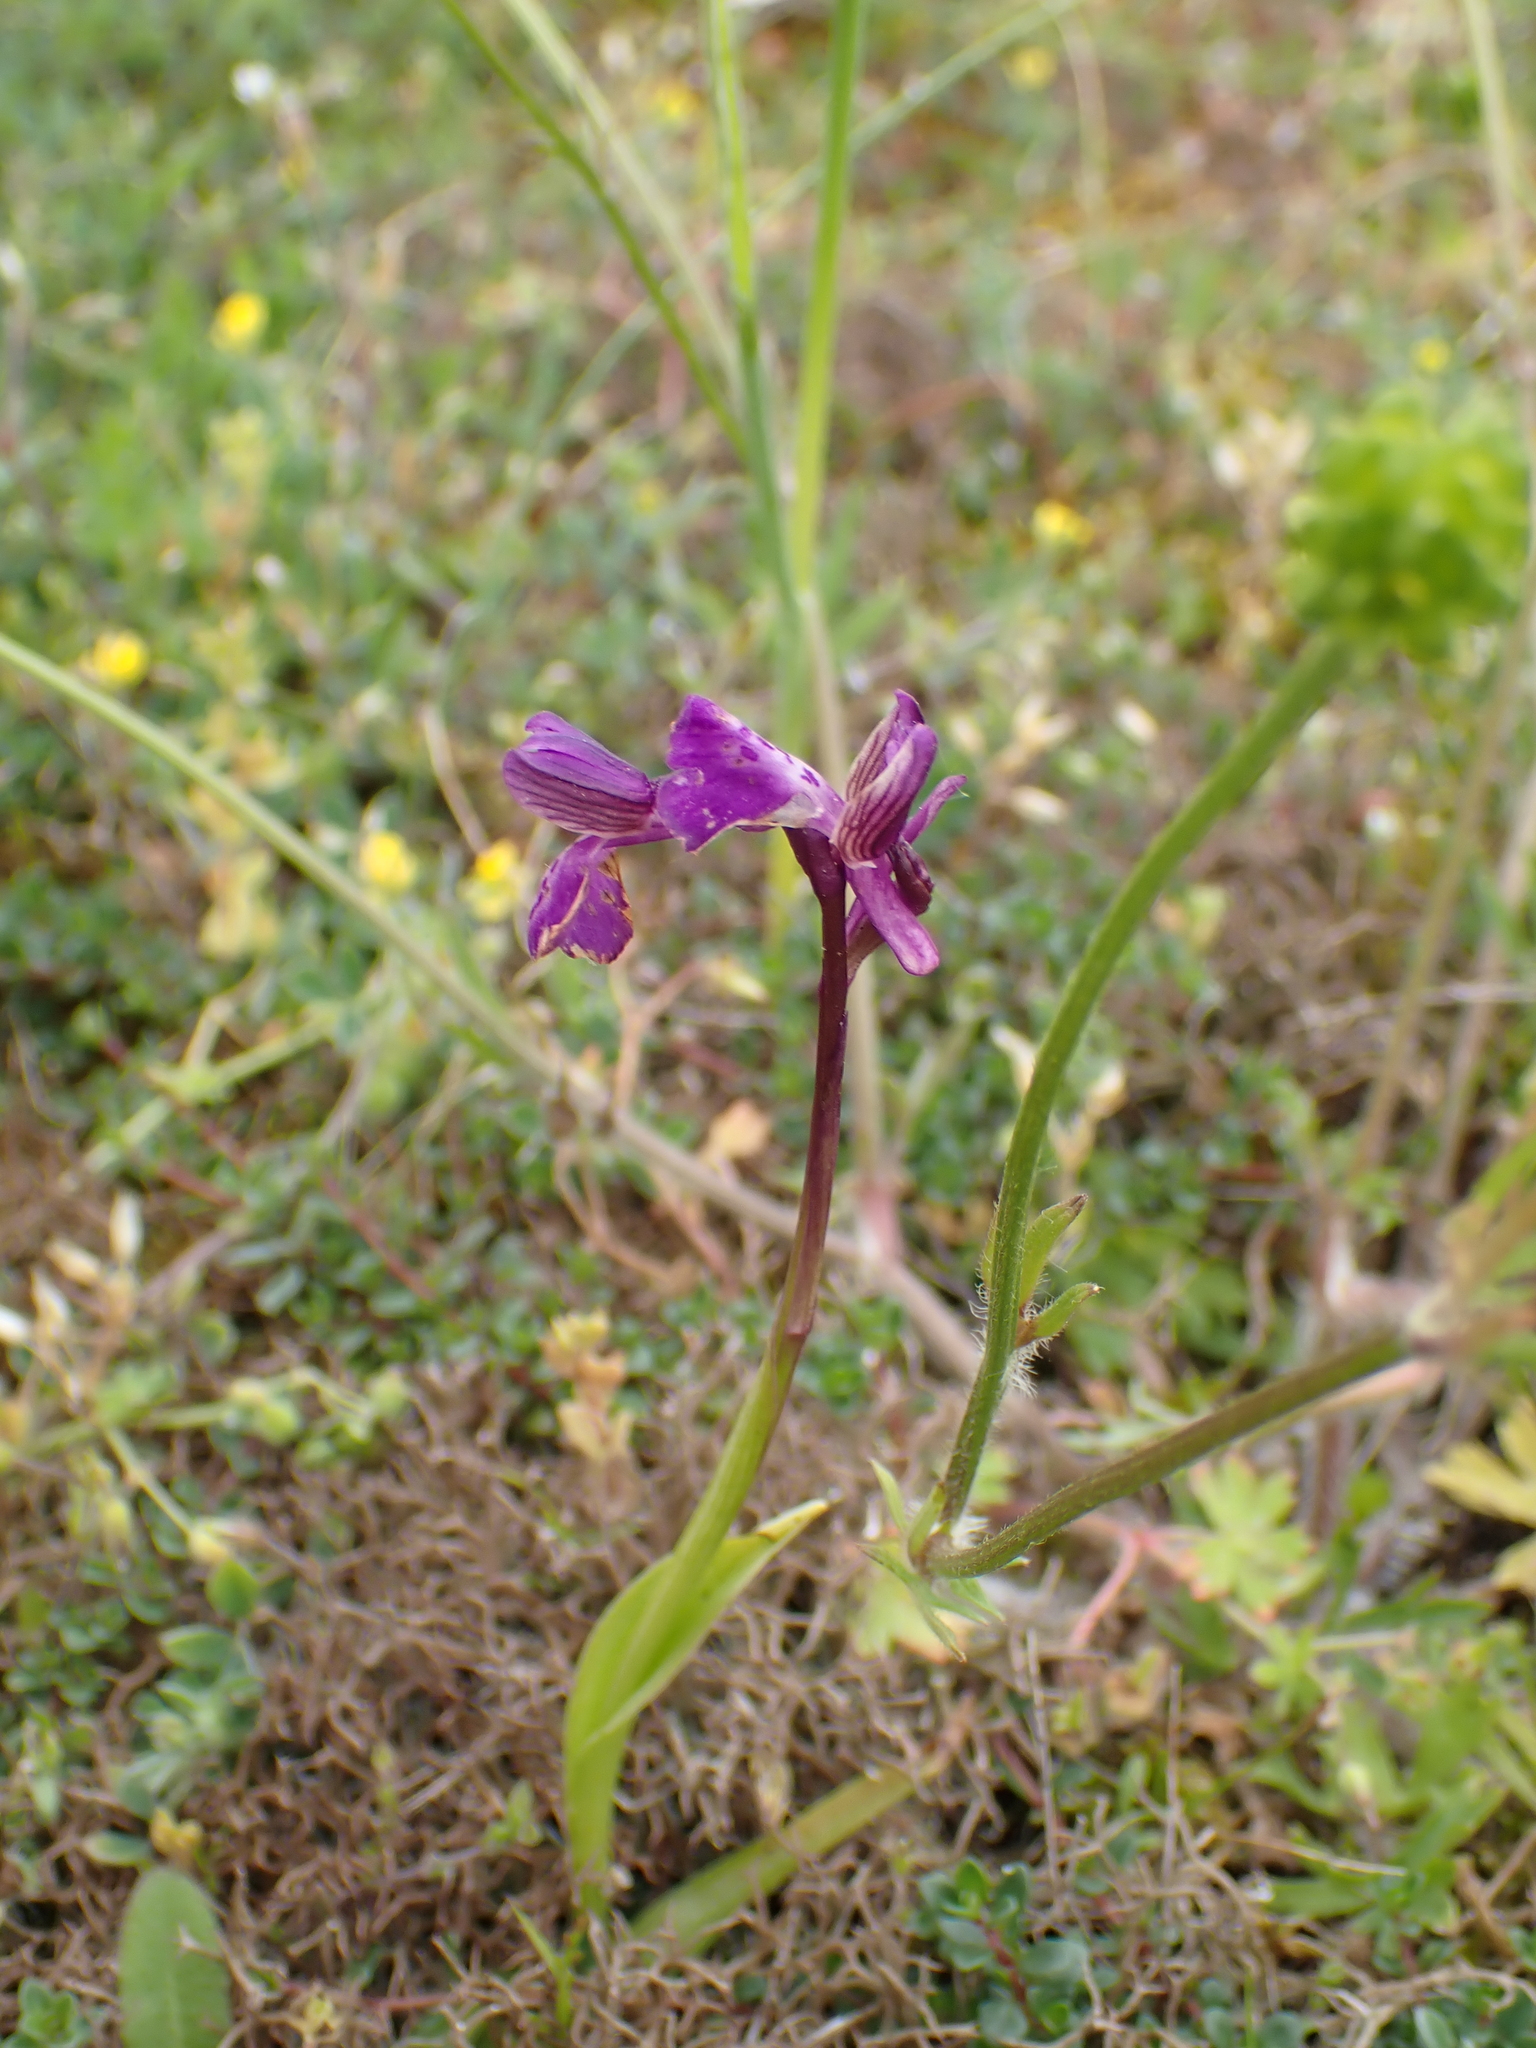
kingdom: Plantae
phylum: Tracheophyta
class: Liliopsida
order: Asparagales
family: Orchidaceae
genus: Anacamptis
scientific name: Anacamptis morio
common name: Green-winged orchid
